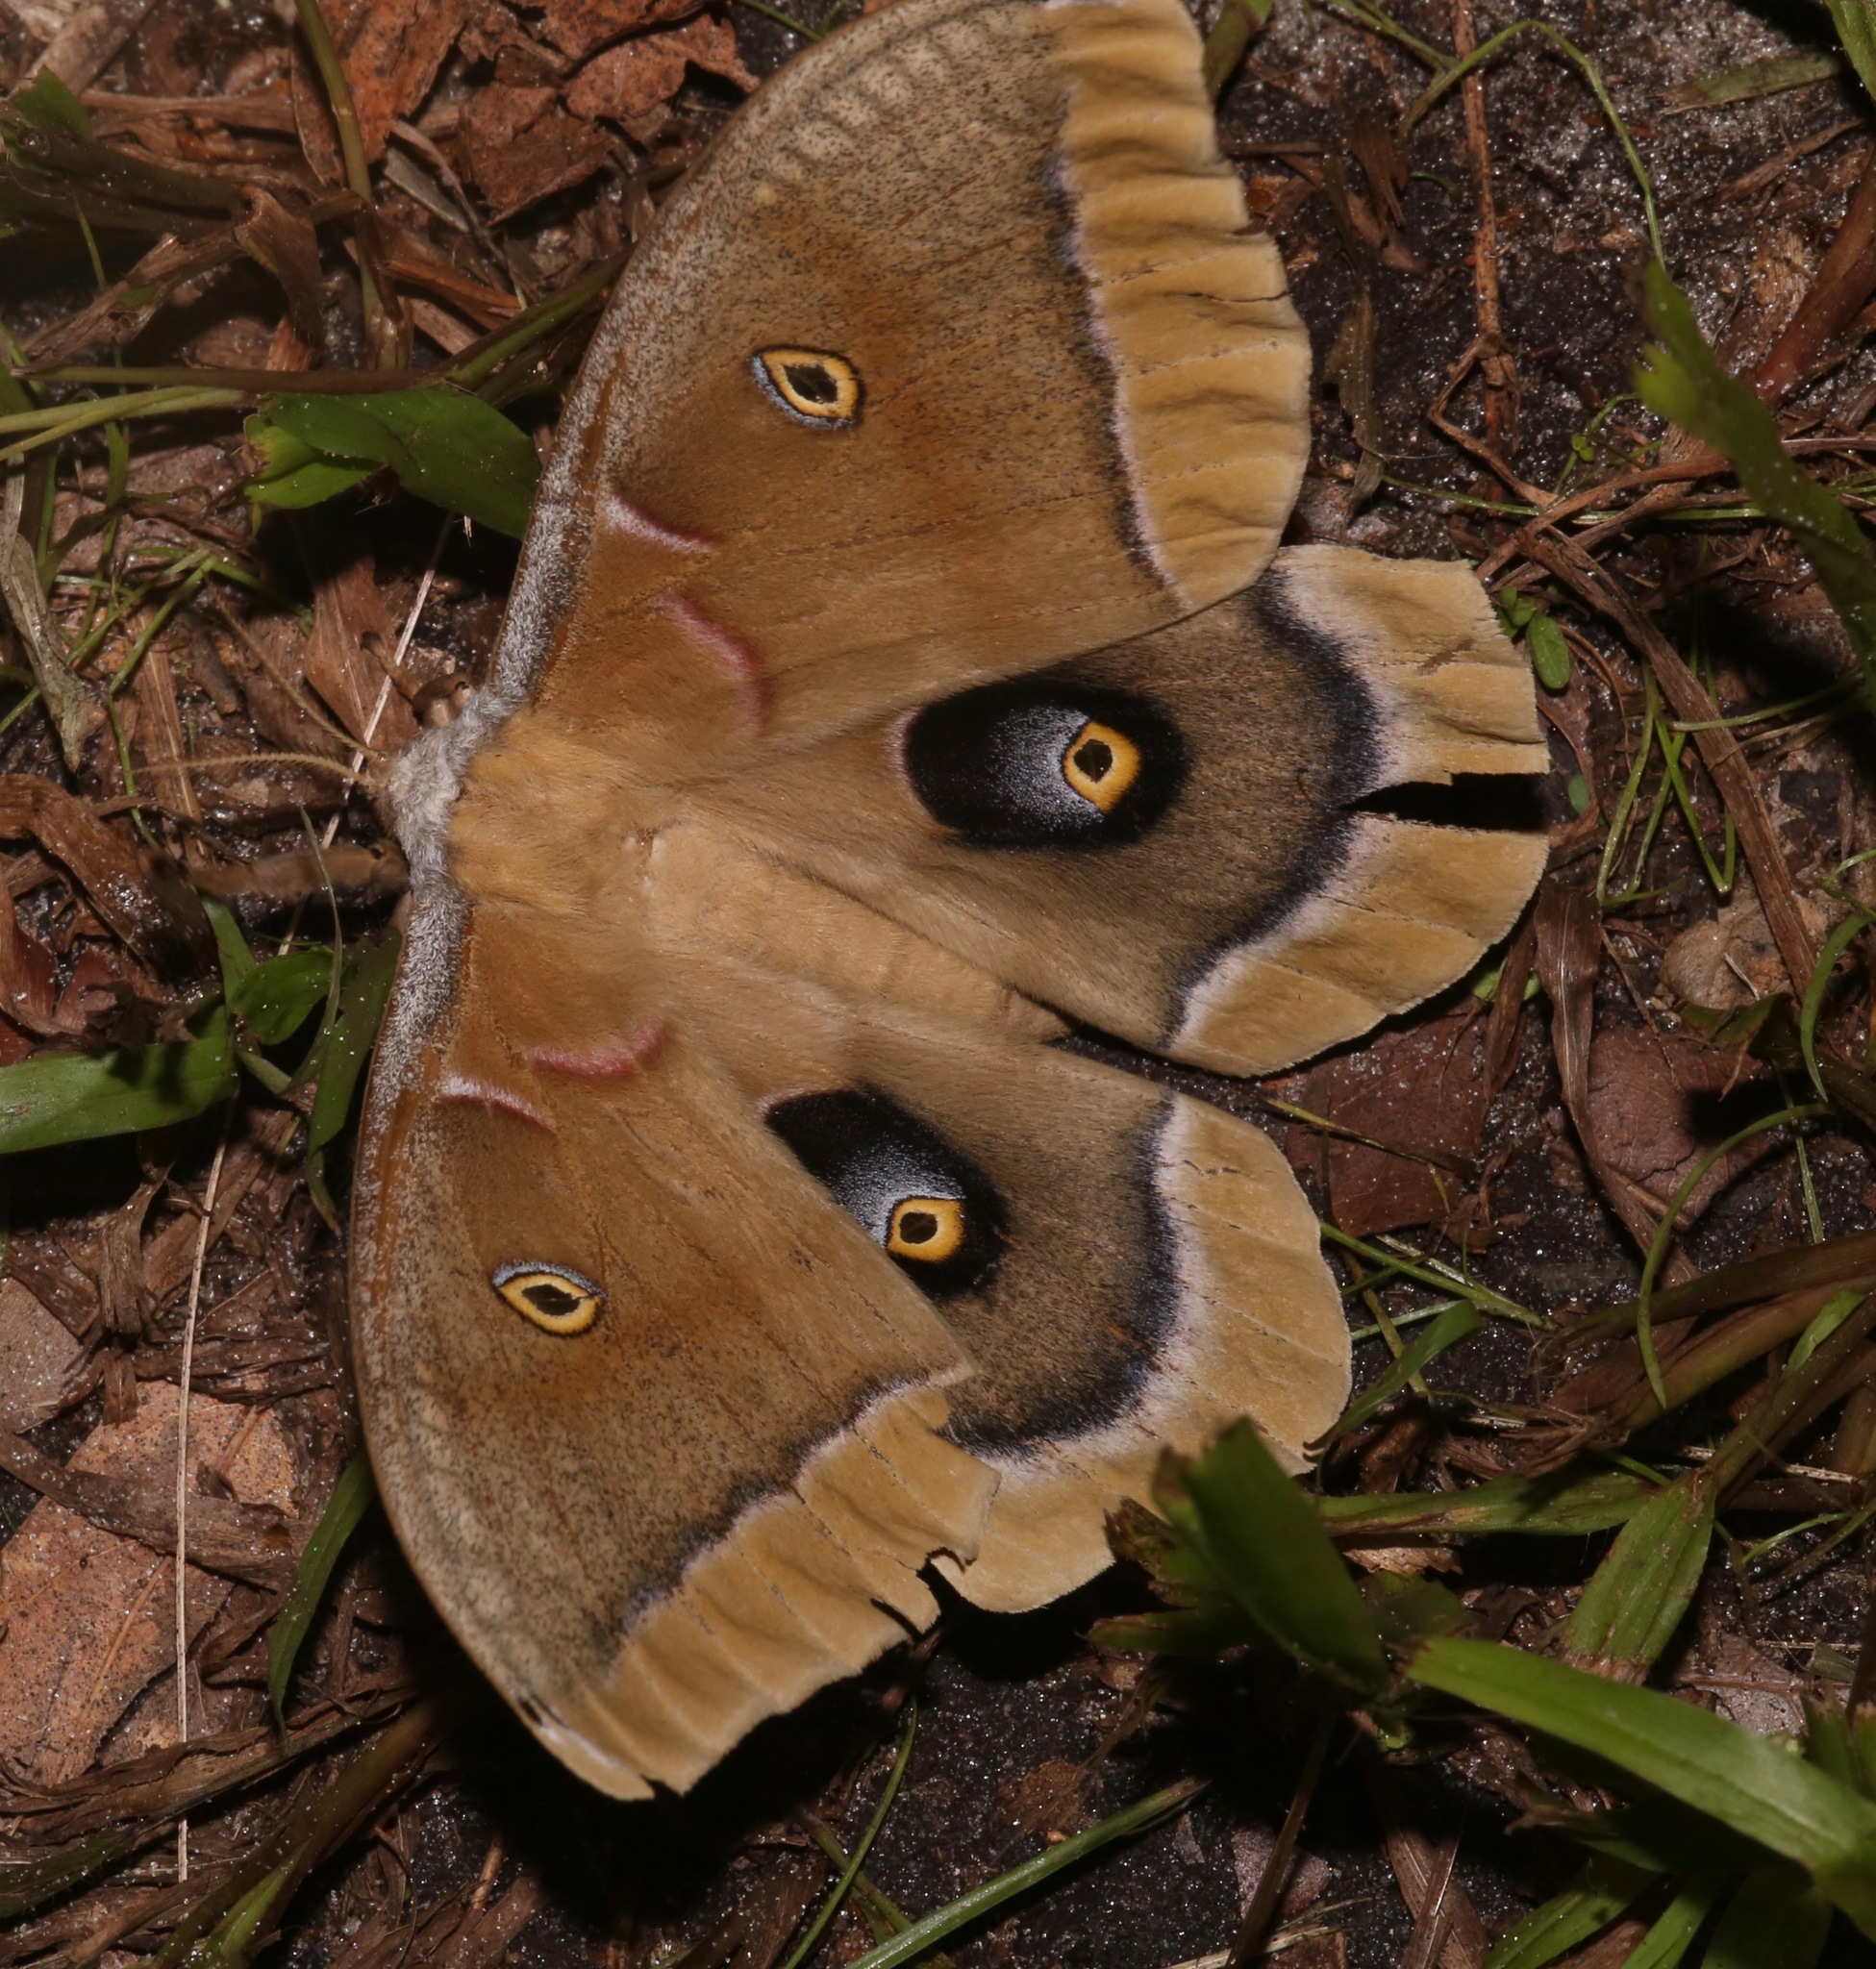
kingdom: Animalia
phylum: Arthropoda
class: Insecta
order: Lepidoptera
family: Saturniidae
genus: Antheraea
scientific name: Antheraea polyphemus
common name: Polyphemus moth
